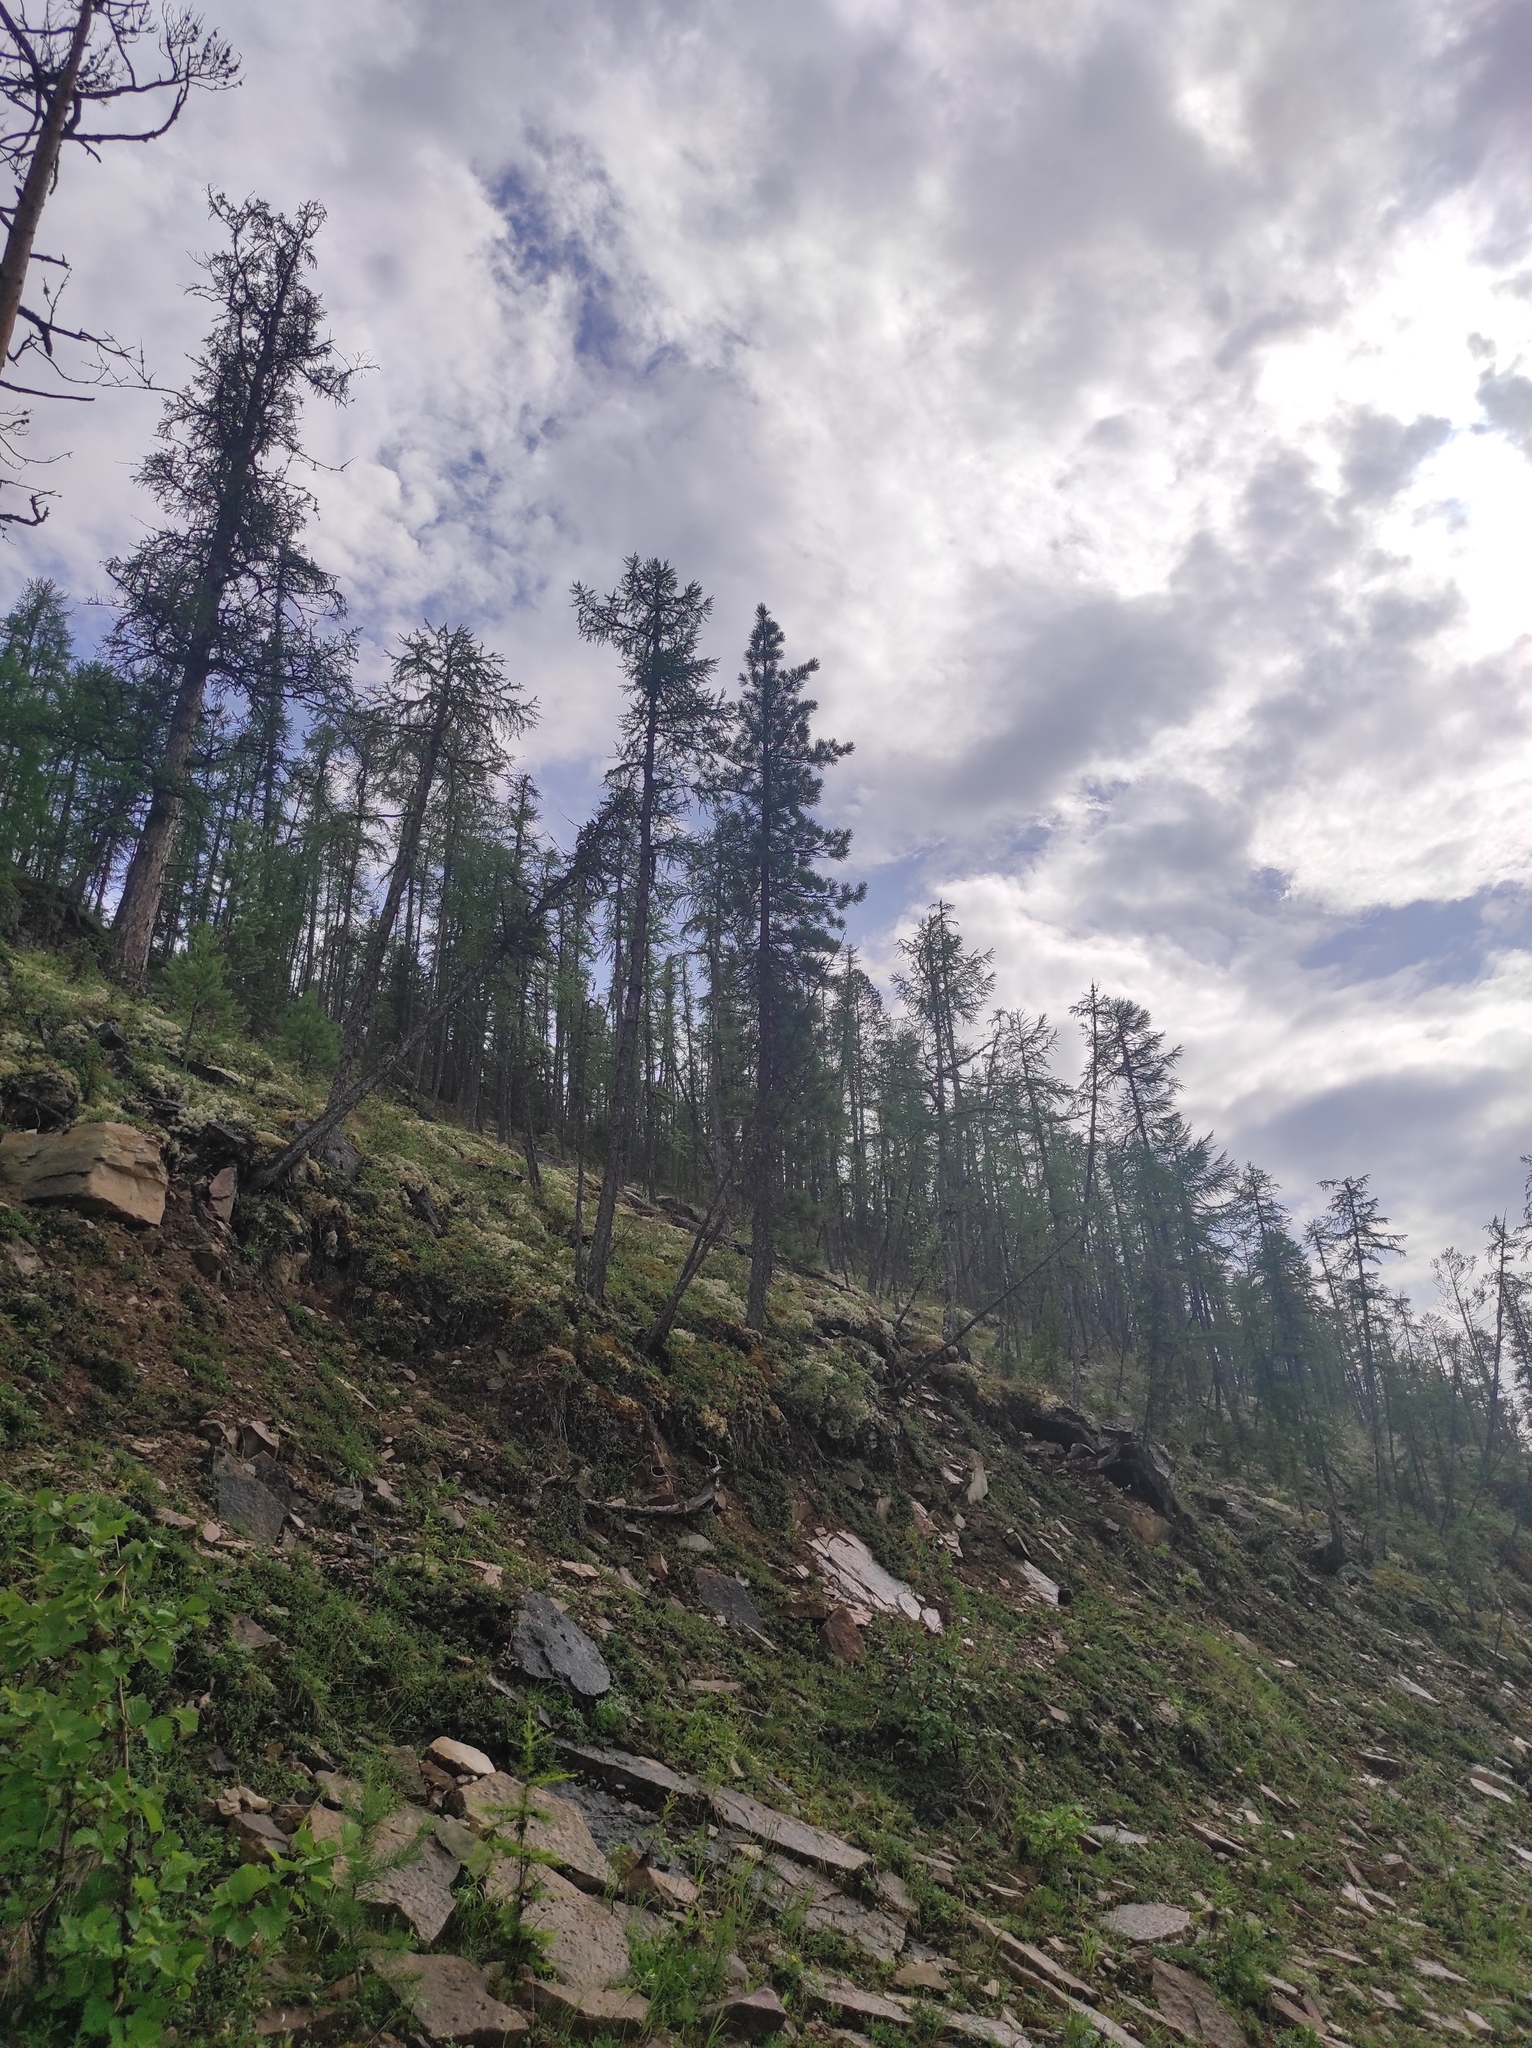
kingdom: Plantae
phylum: Tracheophyta
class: Pinopsida
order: Pinales
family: Pinaceae
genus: Larix
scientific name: Larix gmelinii
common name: Dahurian larch
